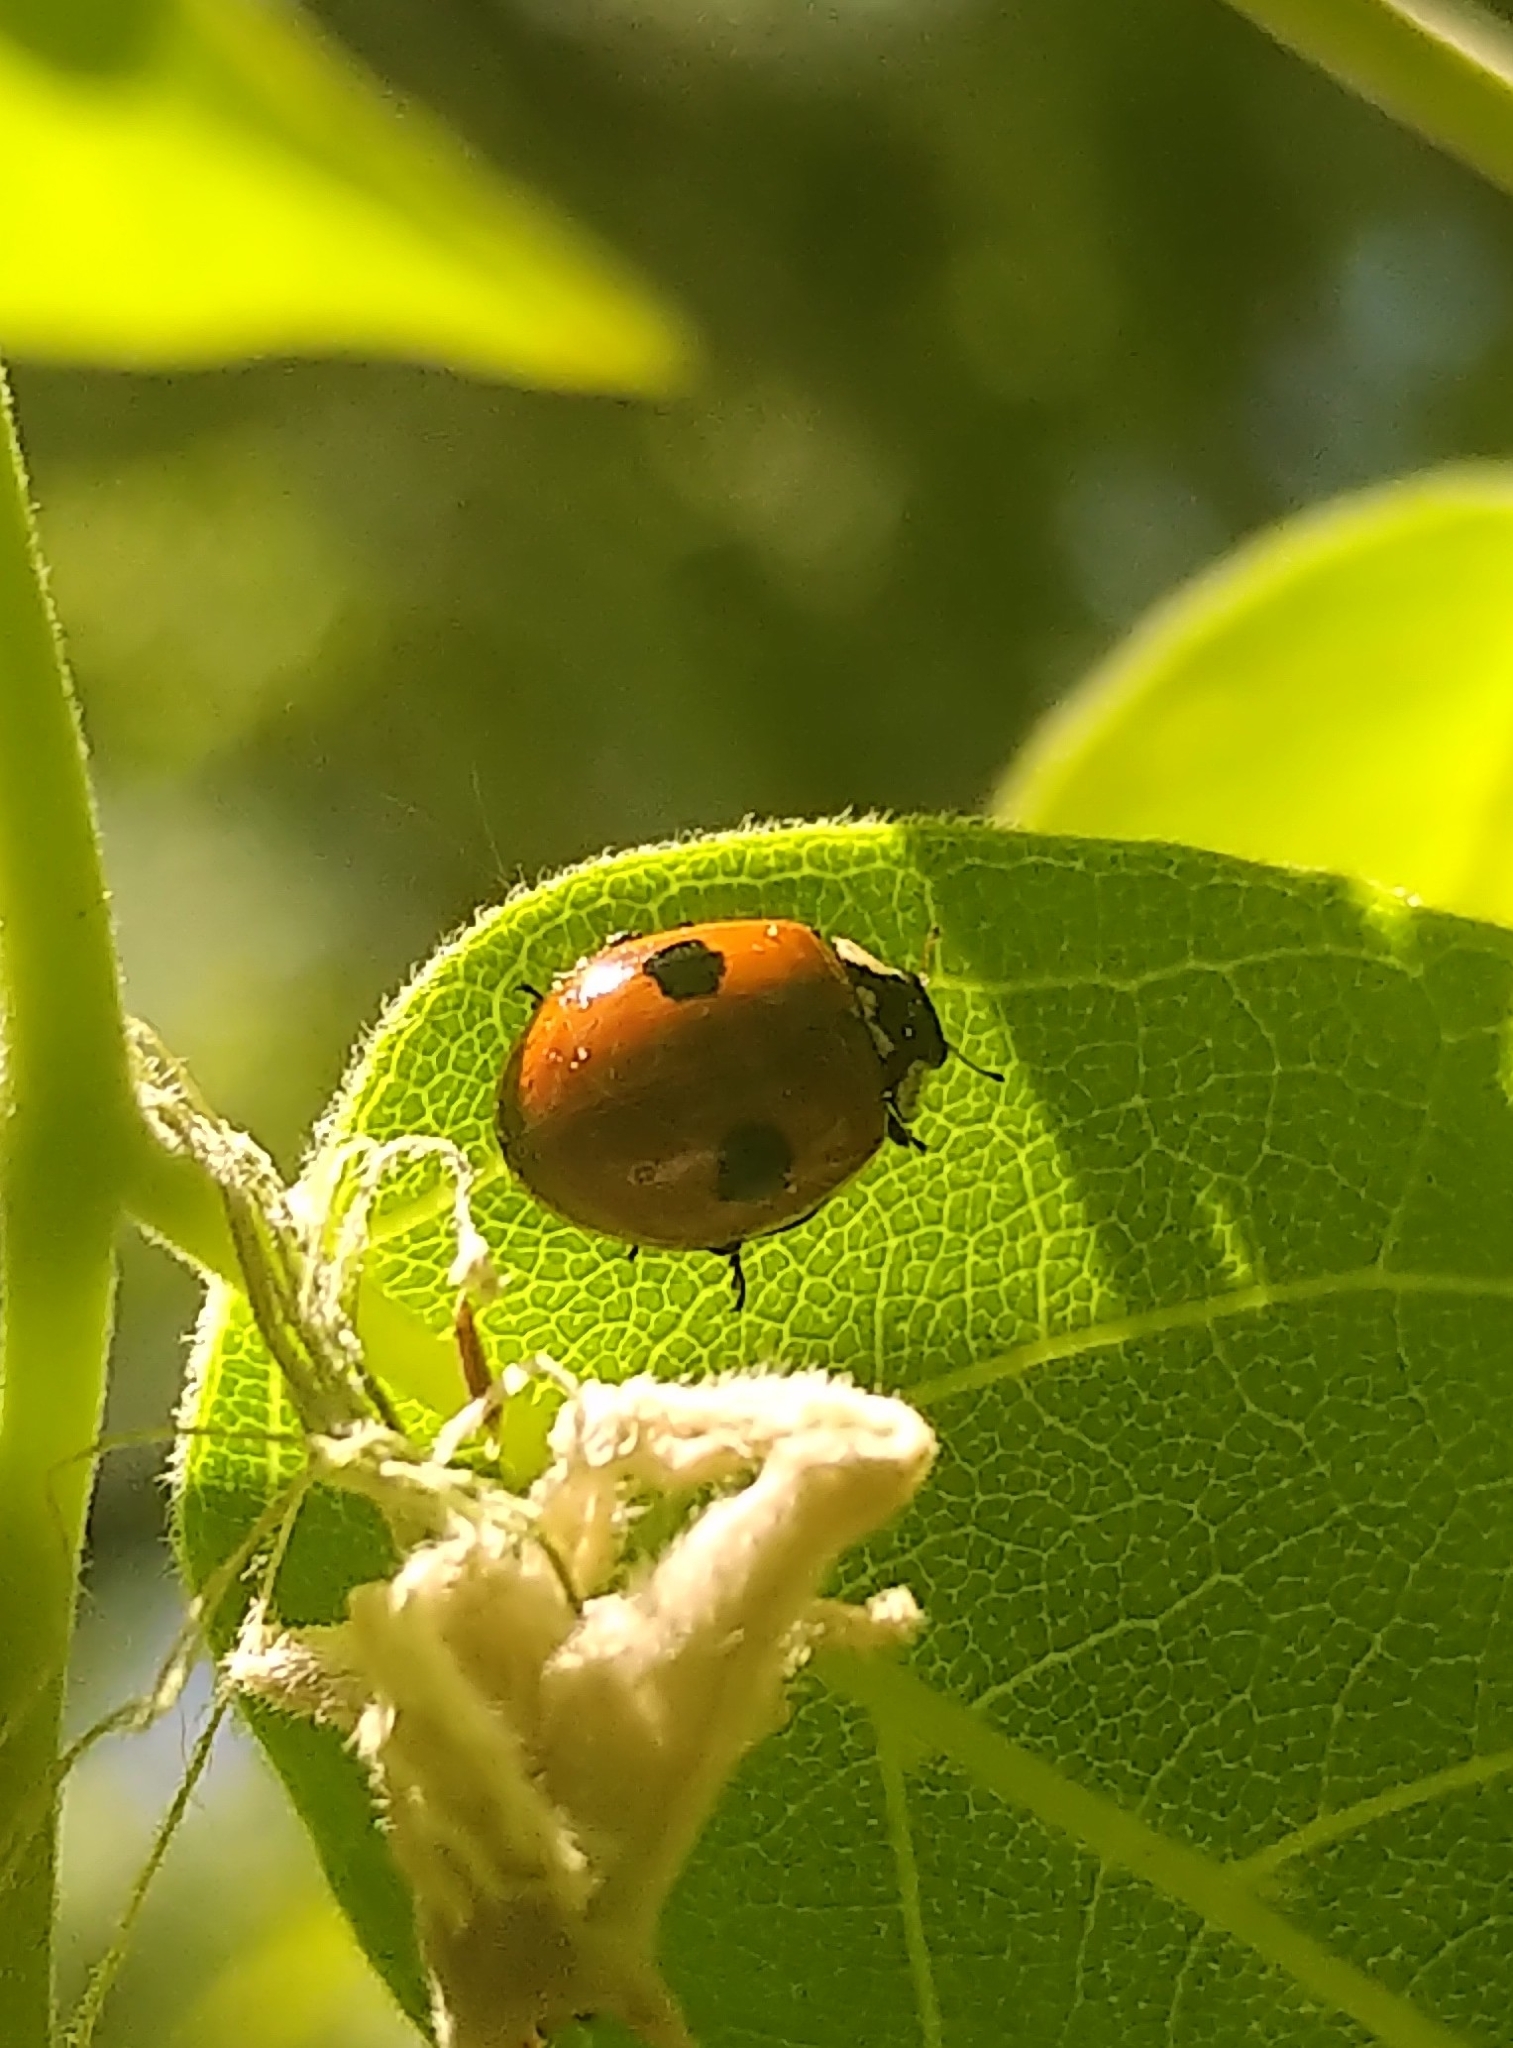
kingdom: Animalia
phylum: Arthropoda
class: Insecta
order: Coleoptera
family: Coccinellidae
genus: Adalia
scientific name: Adalia bipunctata
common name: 2-spot ladybird
